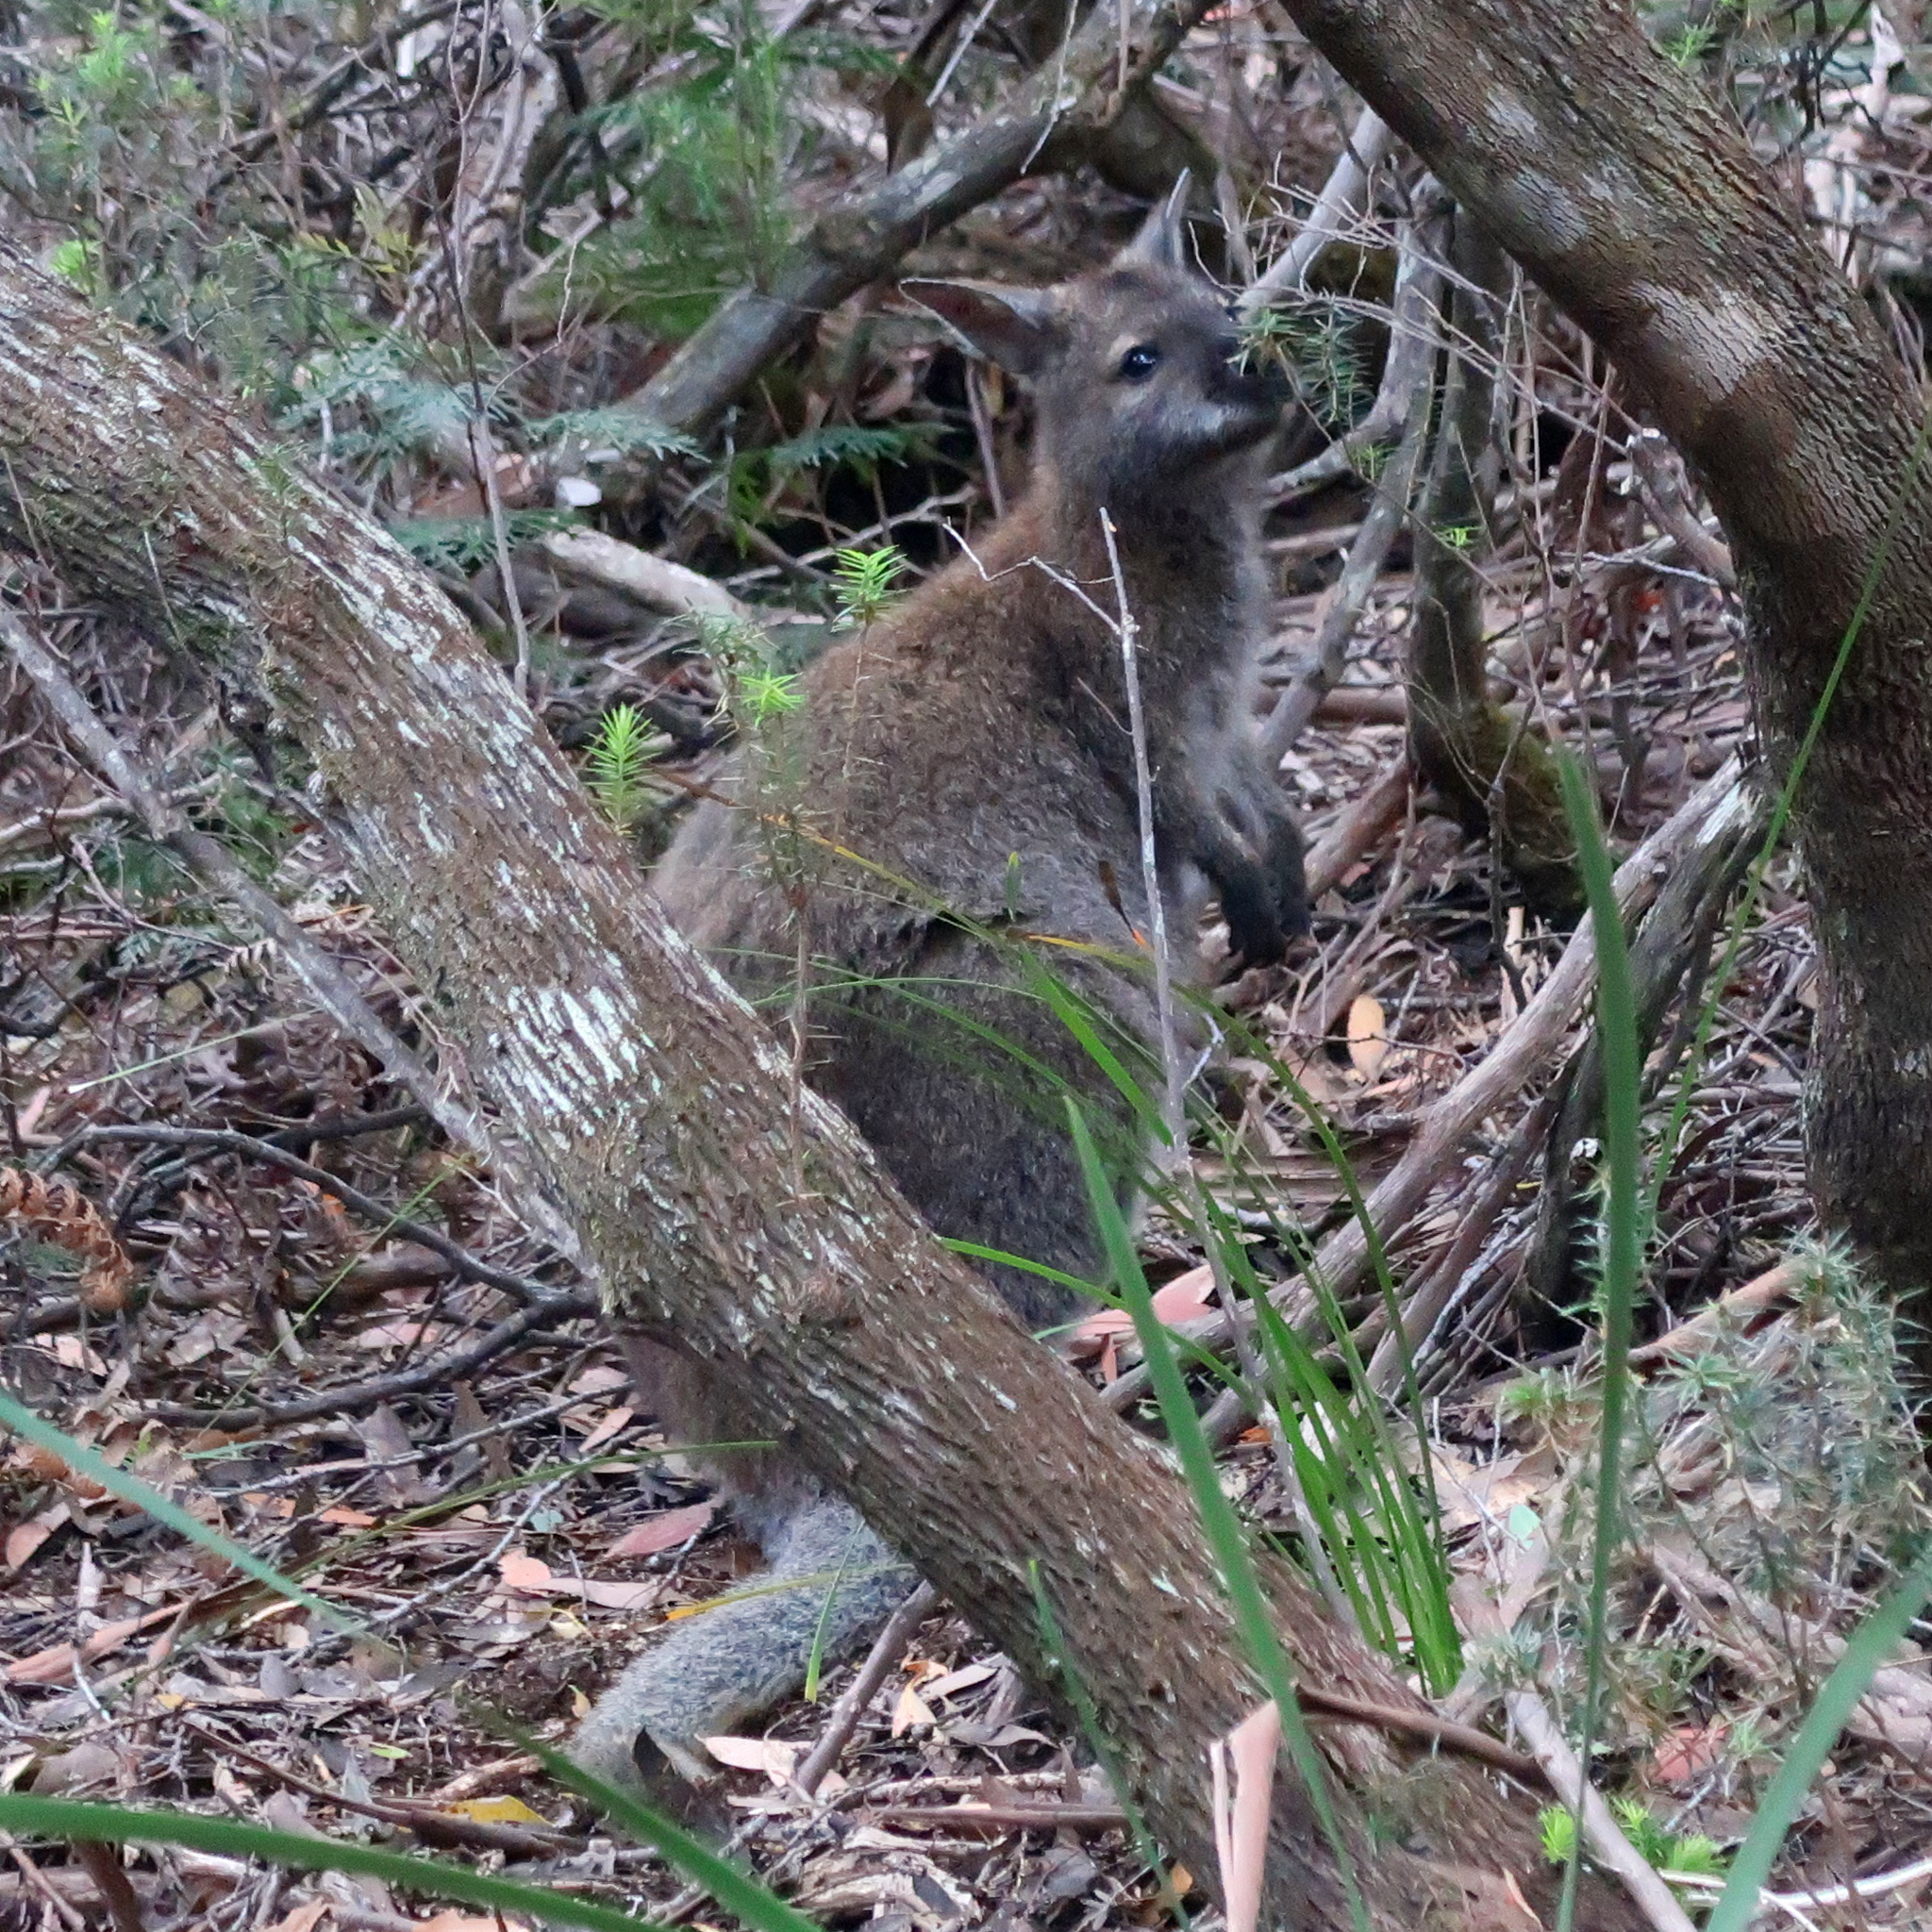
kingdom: Animalia
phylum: Chordata
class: Mammalia
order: Diprotodontia
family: Macropodidae
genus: Notamacropus
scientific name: Notamacropus rufogriseus
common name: Red-necked wallaby
